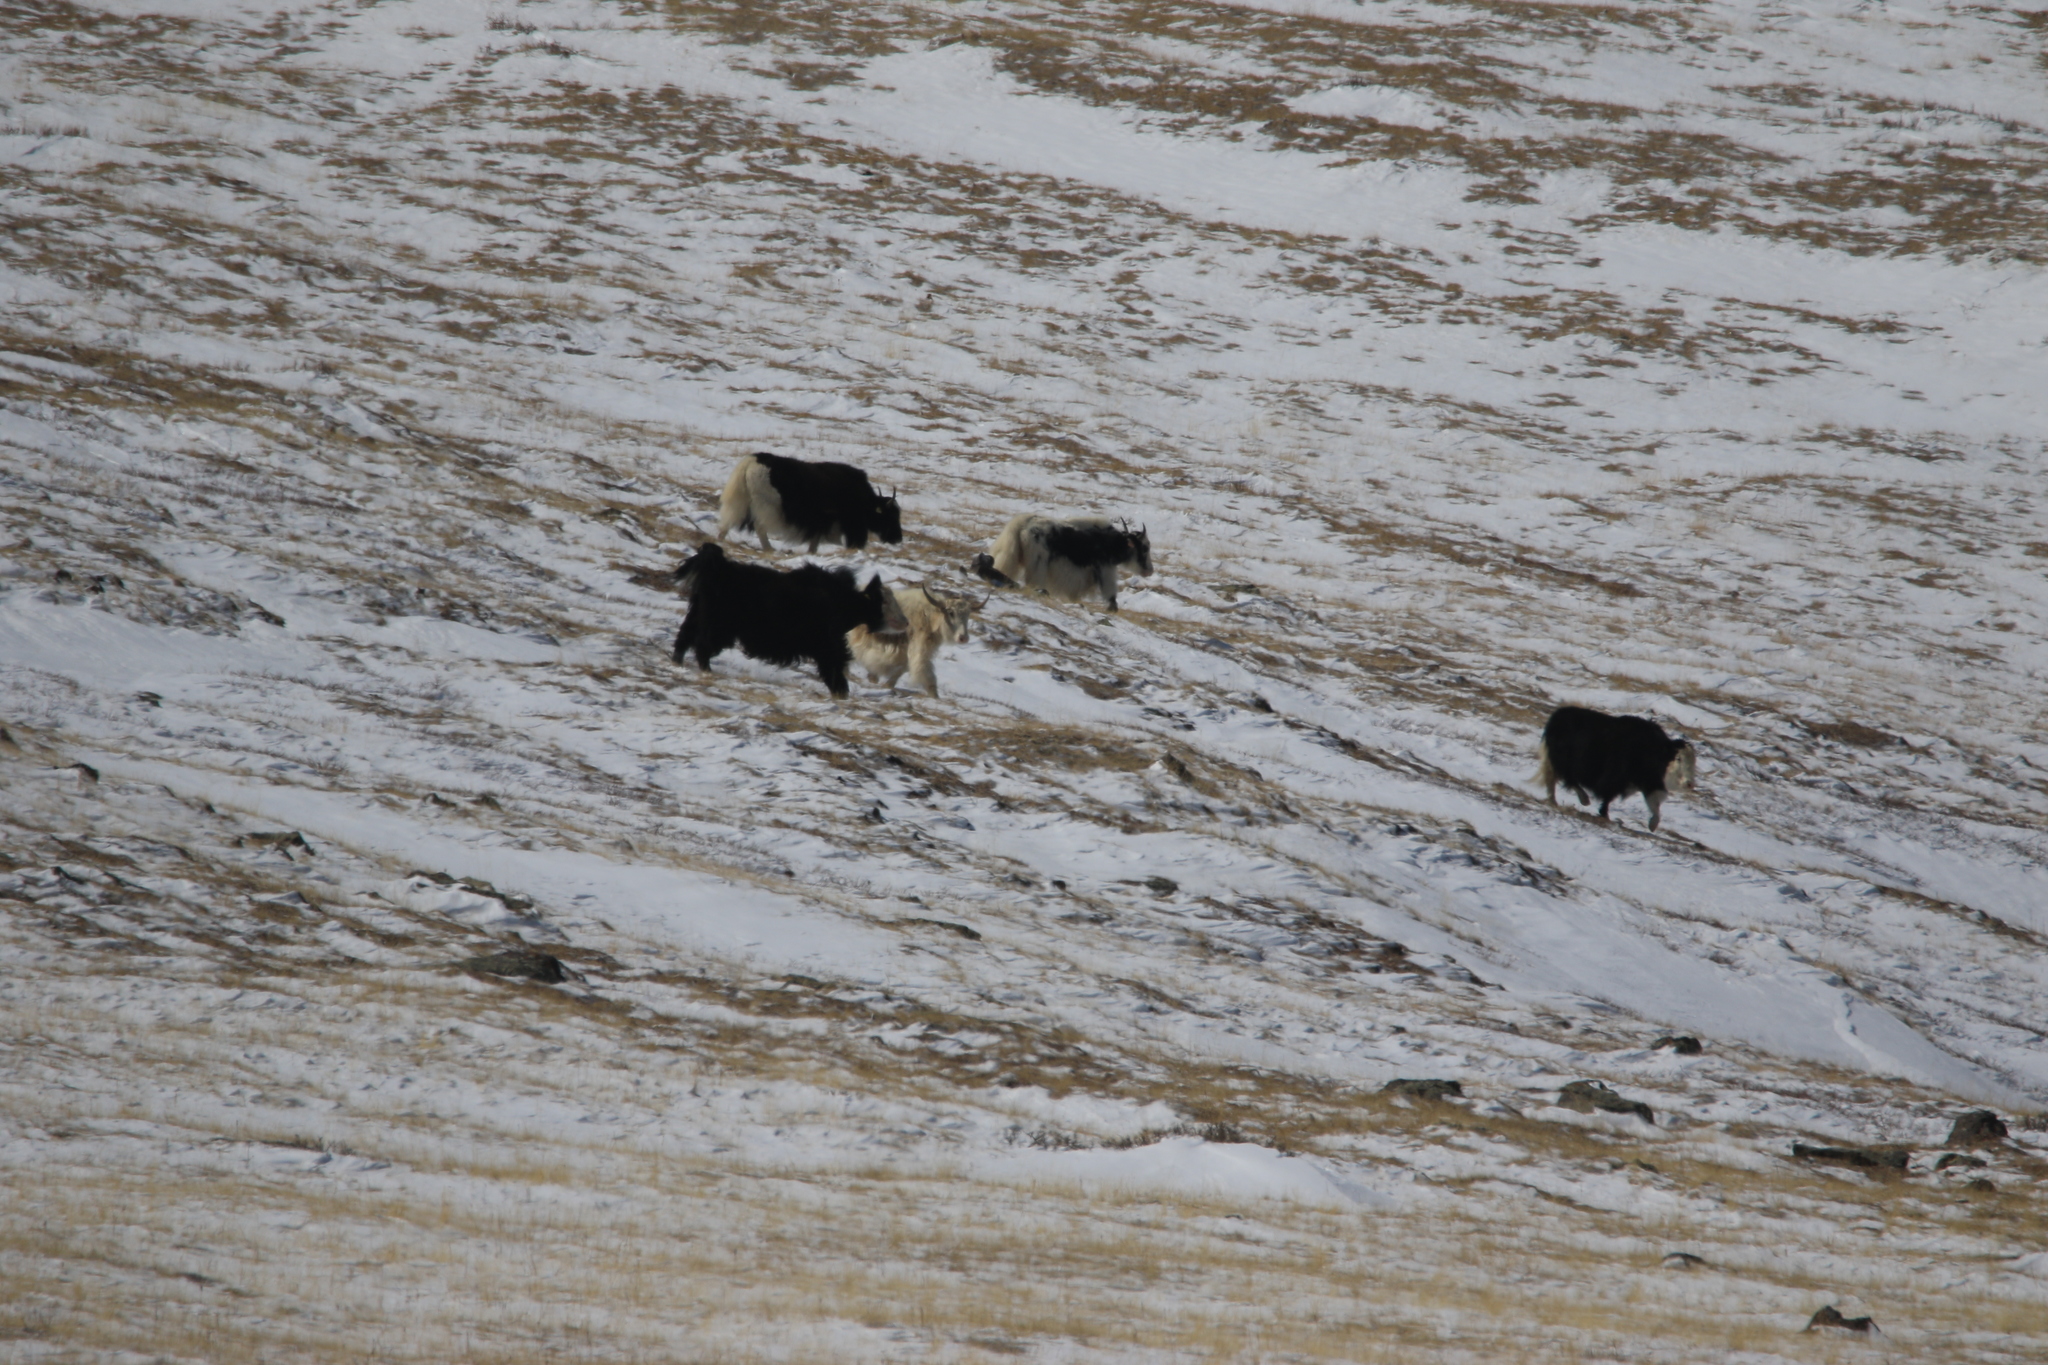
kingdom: Animalia
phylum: Chordata
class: Mammalia
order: Artiodactyla
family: Bovidae
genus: Bos
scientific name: Bos grunniens
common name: Yak
